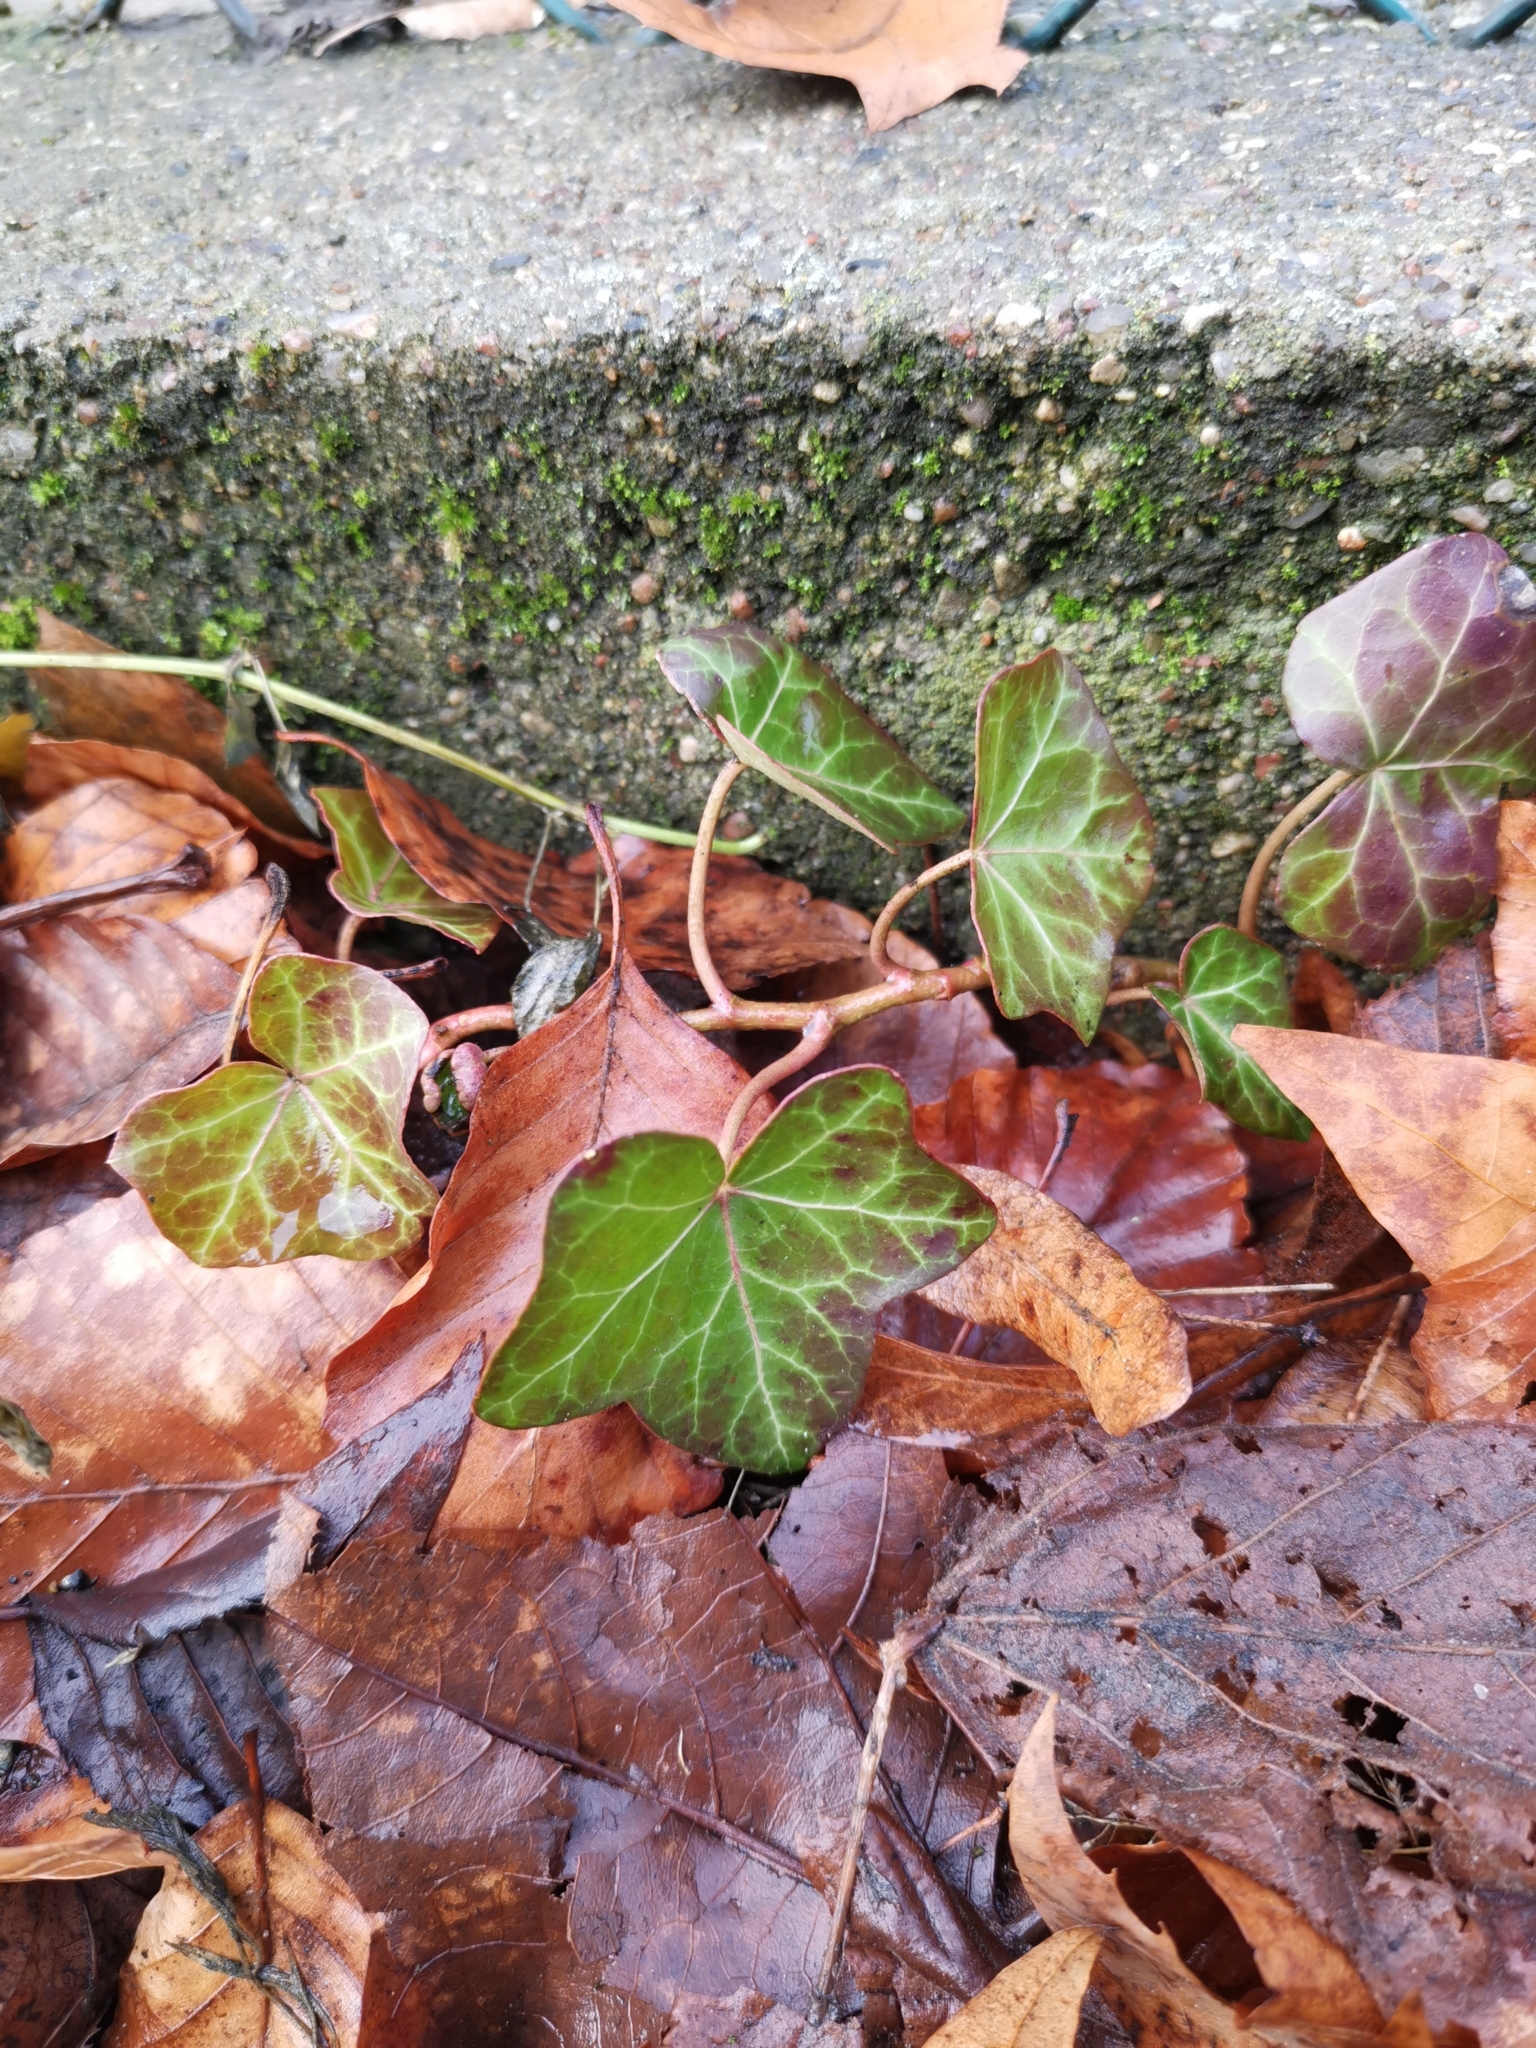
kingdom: Plantae
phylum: Tracheophyta
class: Magnoliopsida
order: Apiales
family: Araliaceae
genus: Hedera
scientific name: Hedera helix
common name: Ivy
